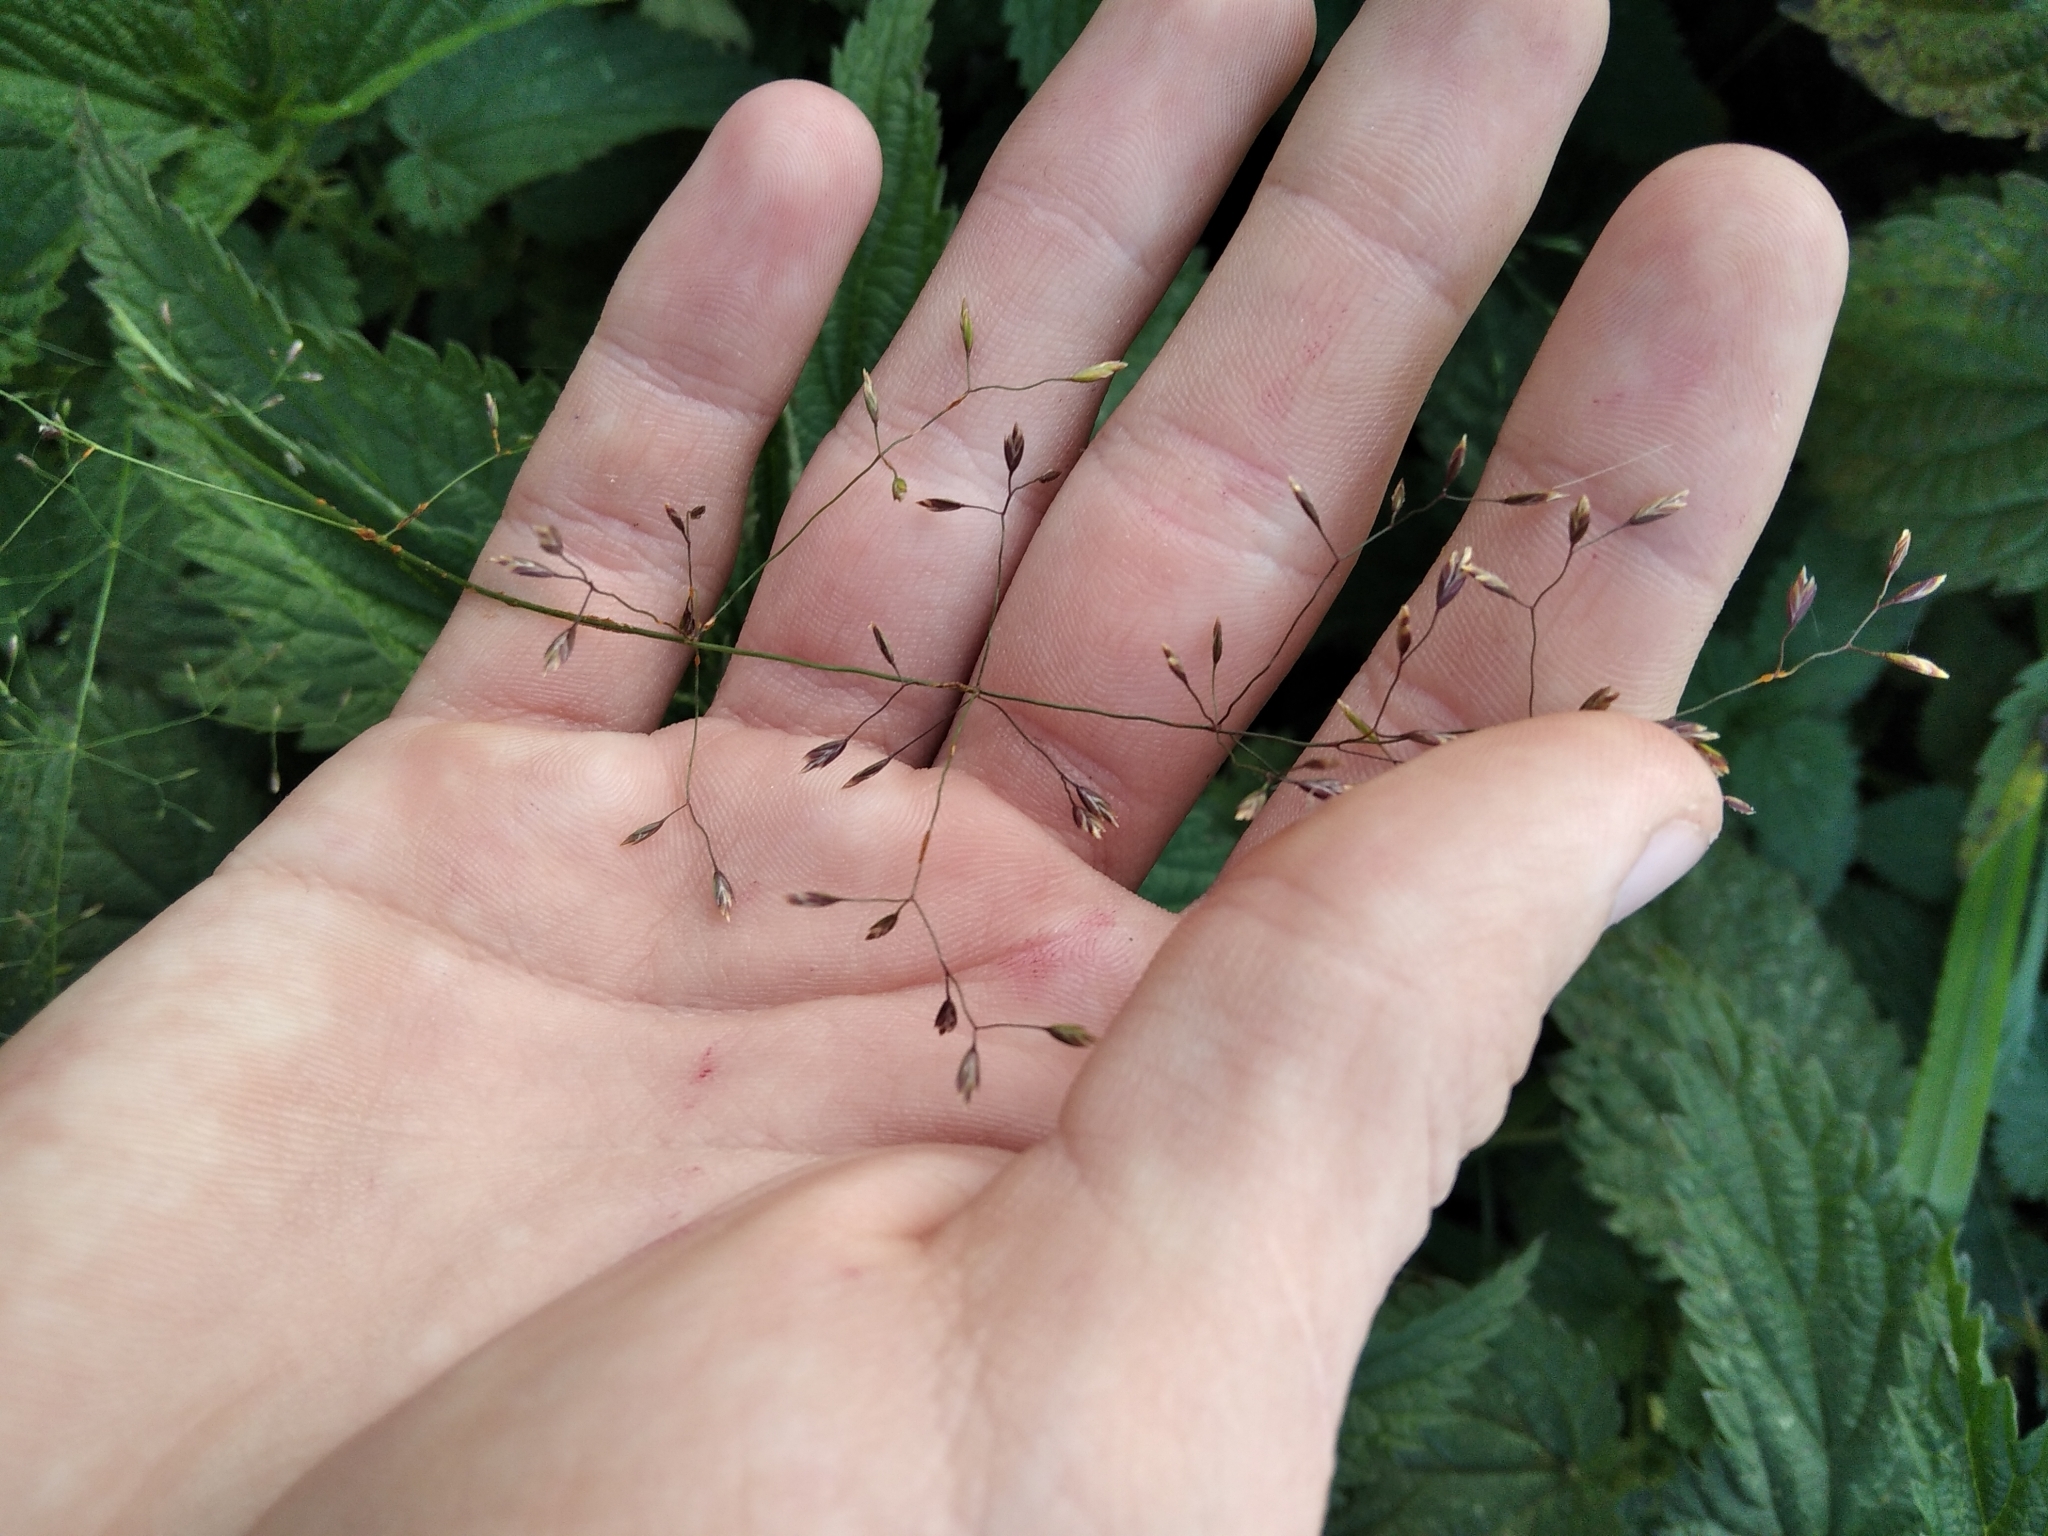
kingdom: Plantae
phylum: Tracheophyta
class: Liliopsida
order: Poales
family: Poaceae
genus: Poa
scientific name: Poa palustris
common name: Swamp meadow-grass
